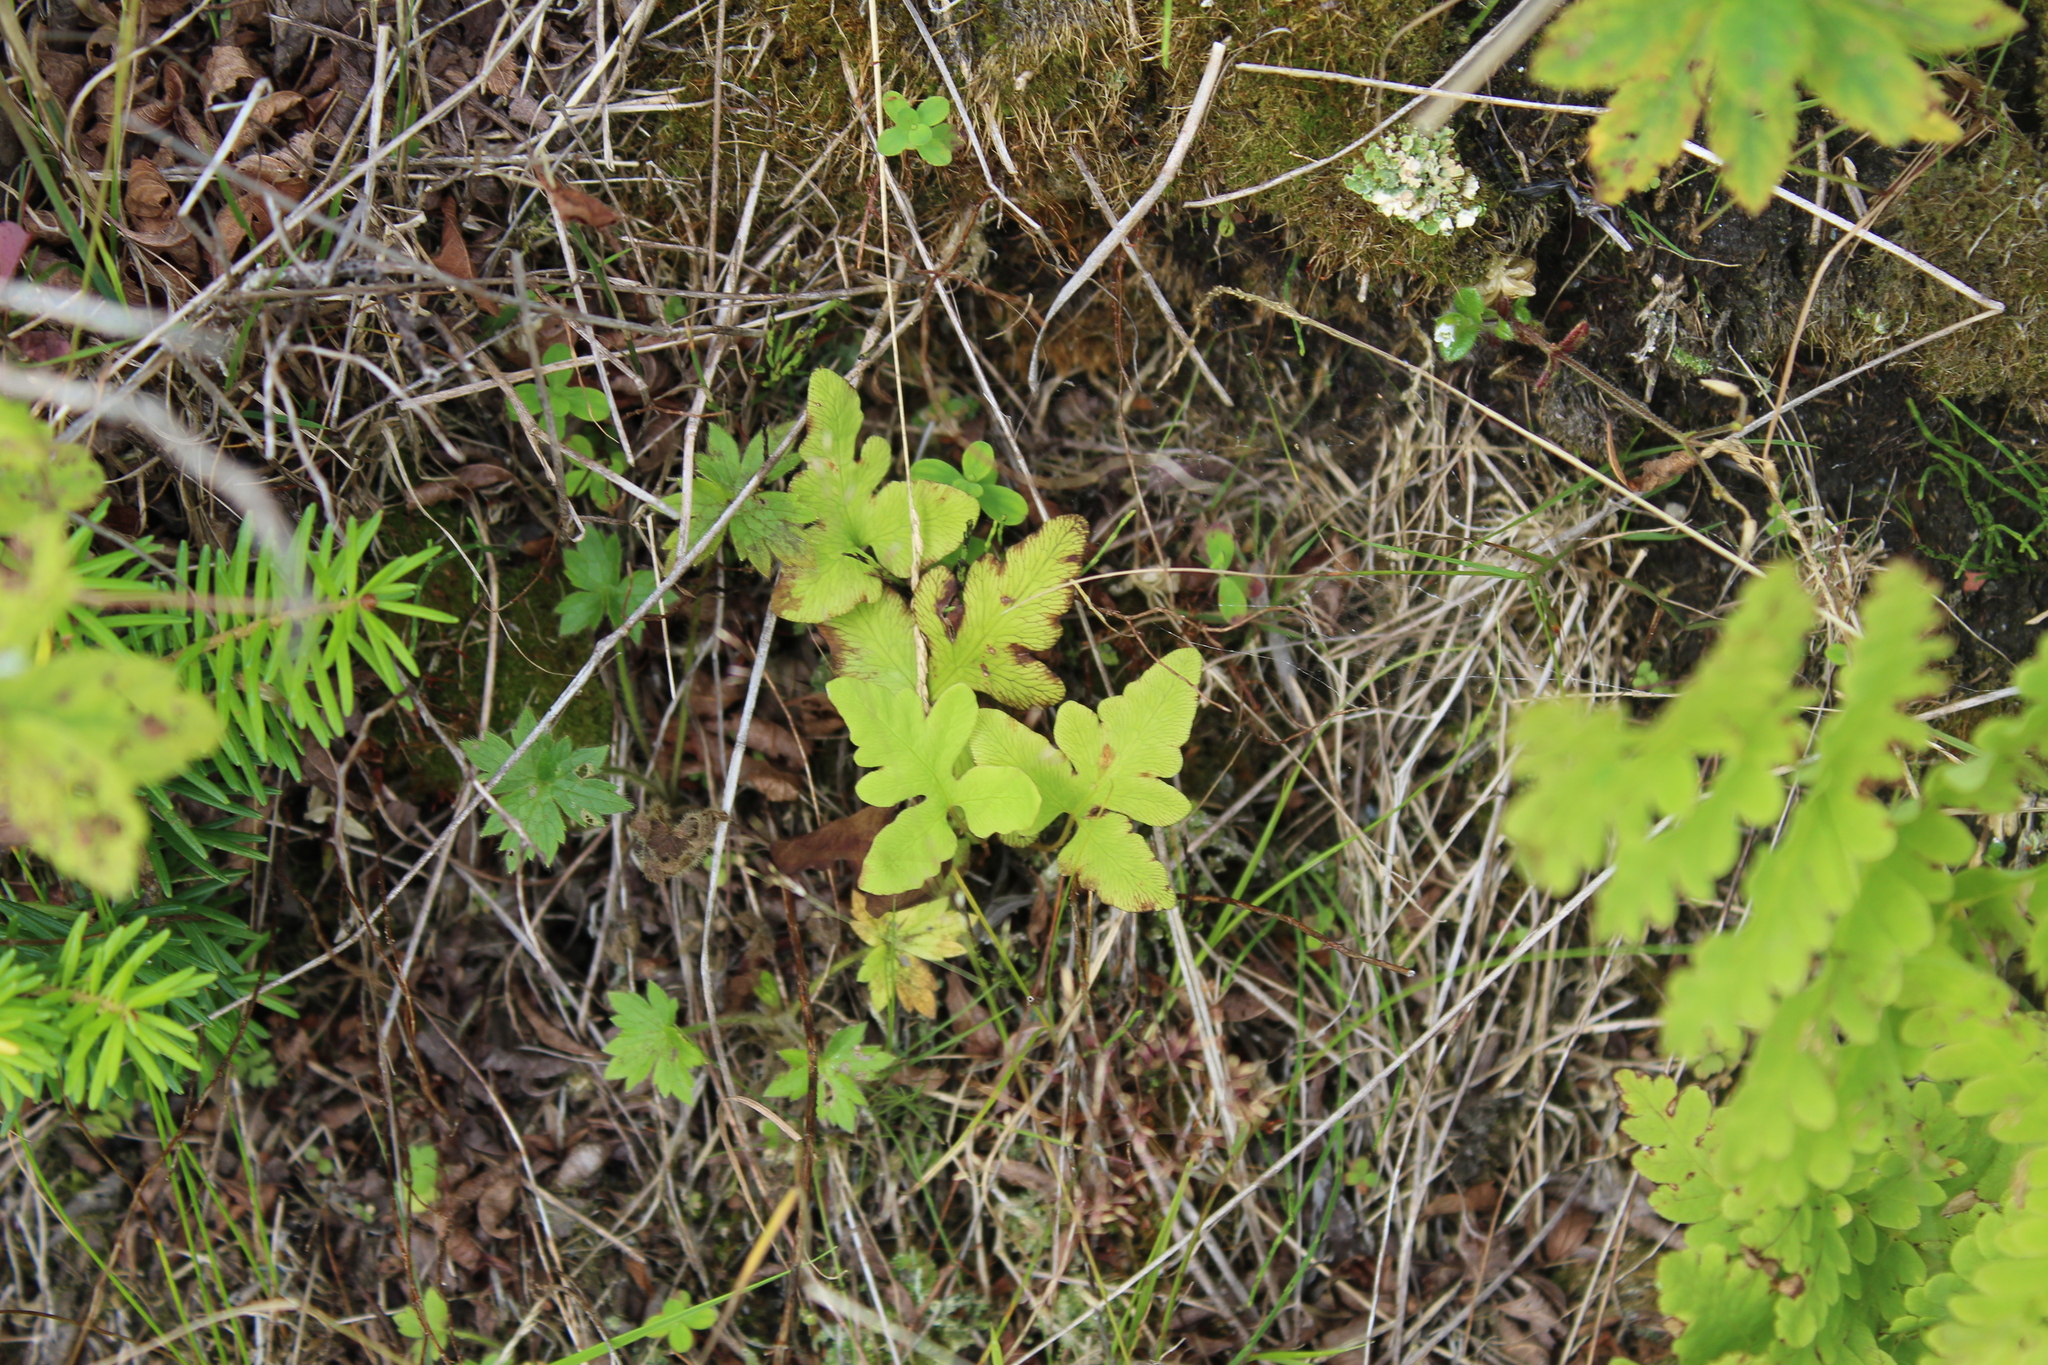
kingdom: Plantae
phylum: Tracheophyta
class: Polypodiopsida
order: Polypodiales
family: Onocleaceae
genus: Onoclea
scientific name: Onoclea sensibilis
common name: Sensitive fern
